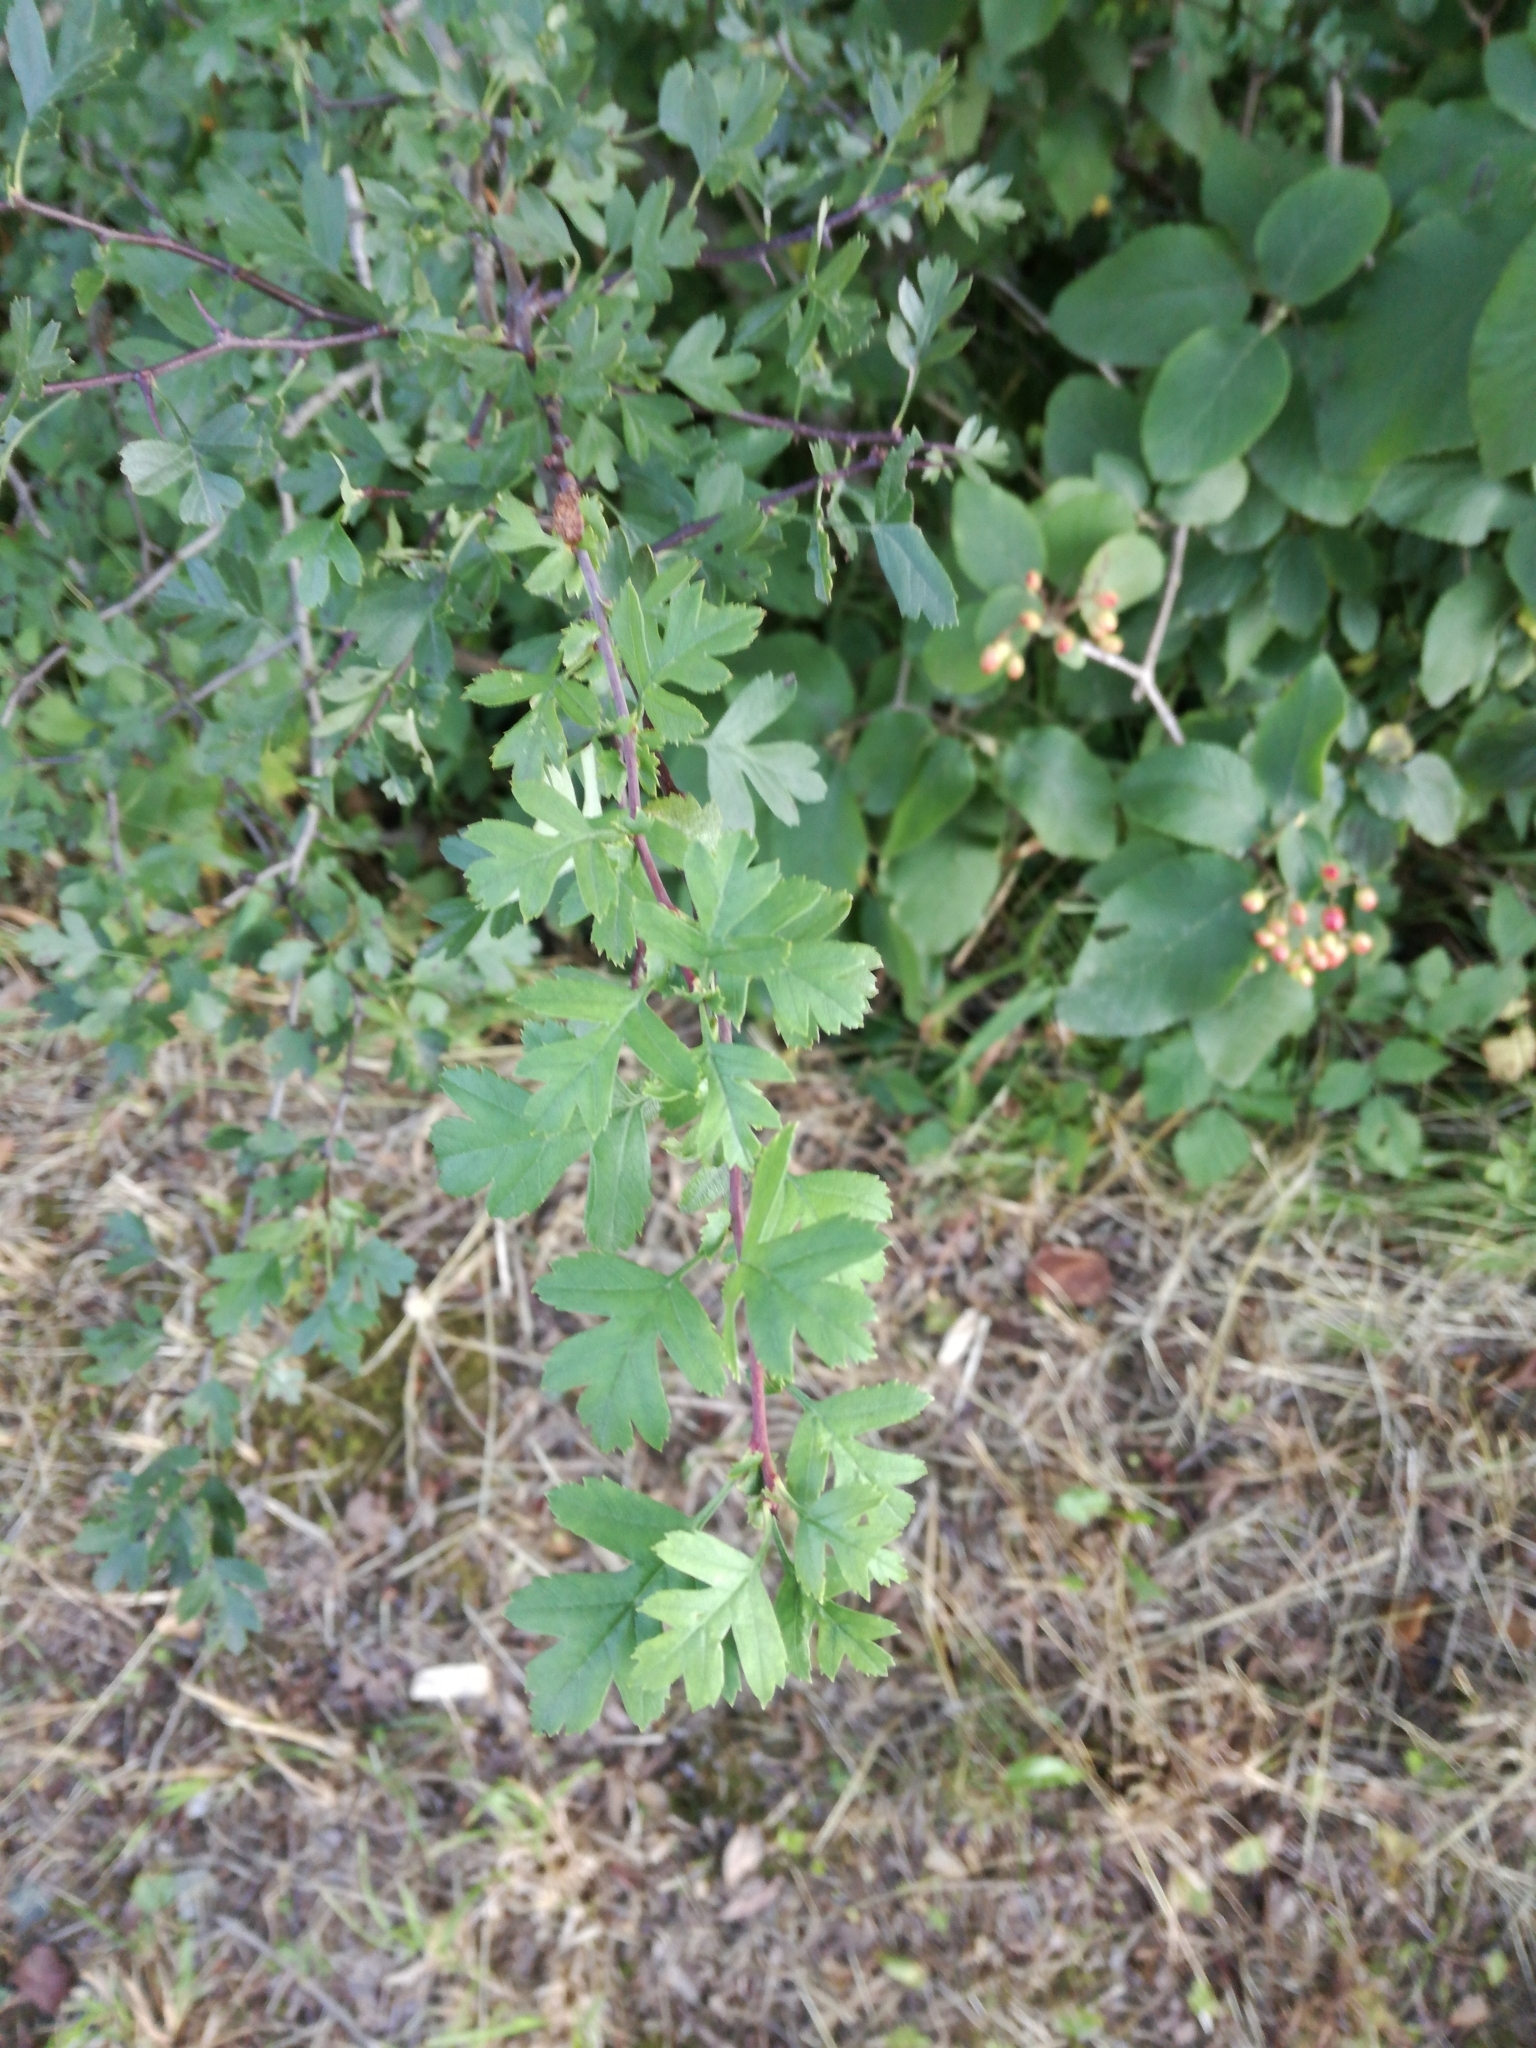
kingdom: Plantae
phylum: Tracheophyta
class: Magnoliopsida
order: Rosales
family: Rosaceae
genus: Crataegus
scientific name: Crataegus monogyna
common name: Hawthorn
